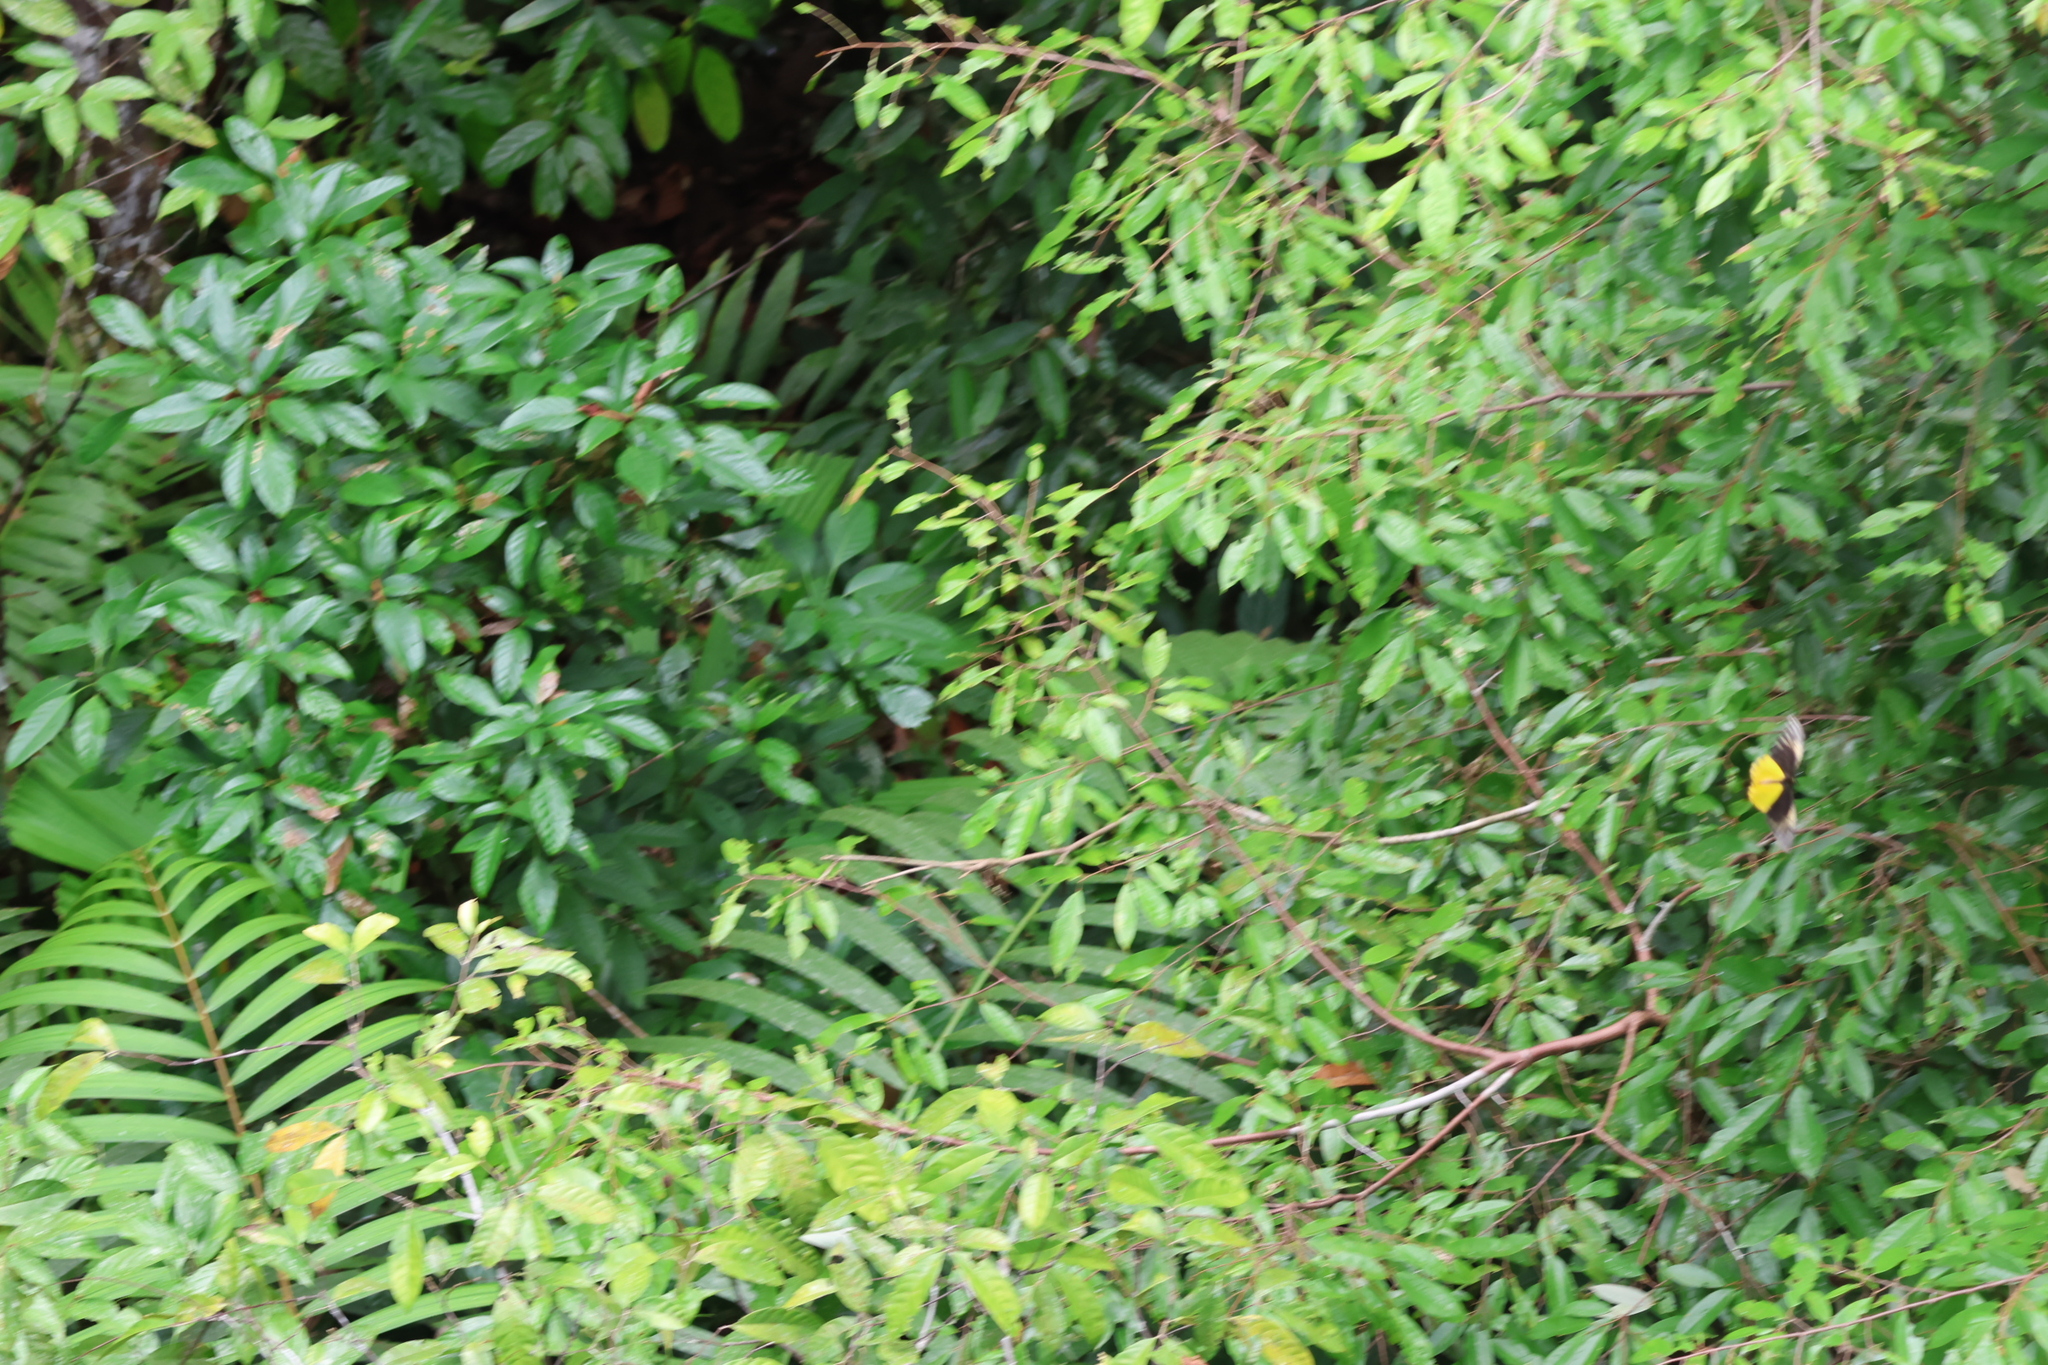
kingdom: Animalia
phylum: Arthropoda
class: Insecta
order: Lepidoptera
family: Papilionidae
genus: Troides
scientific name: Troides amphrysus
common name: Malay birdwing
